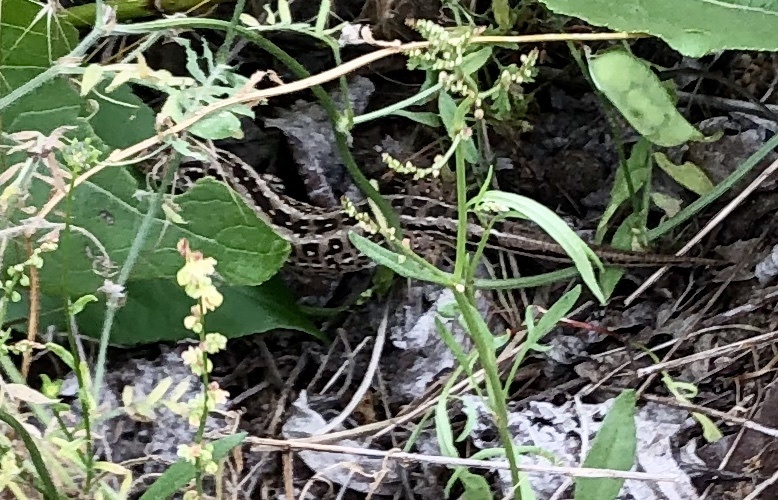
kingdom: Animalia
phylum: Chordata
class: Squamata
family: Lacertidae
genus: Lacerta
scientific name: Lacerta agilis
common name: Sand lizard
